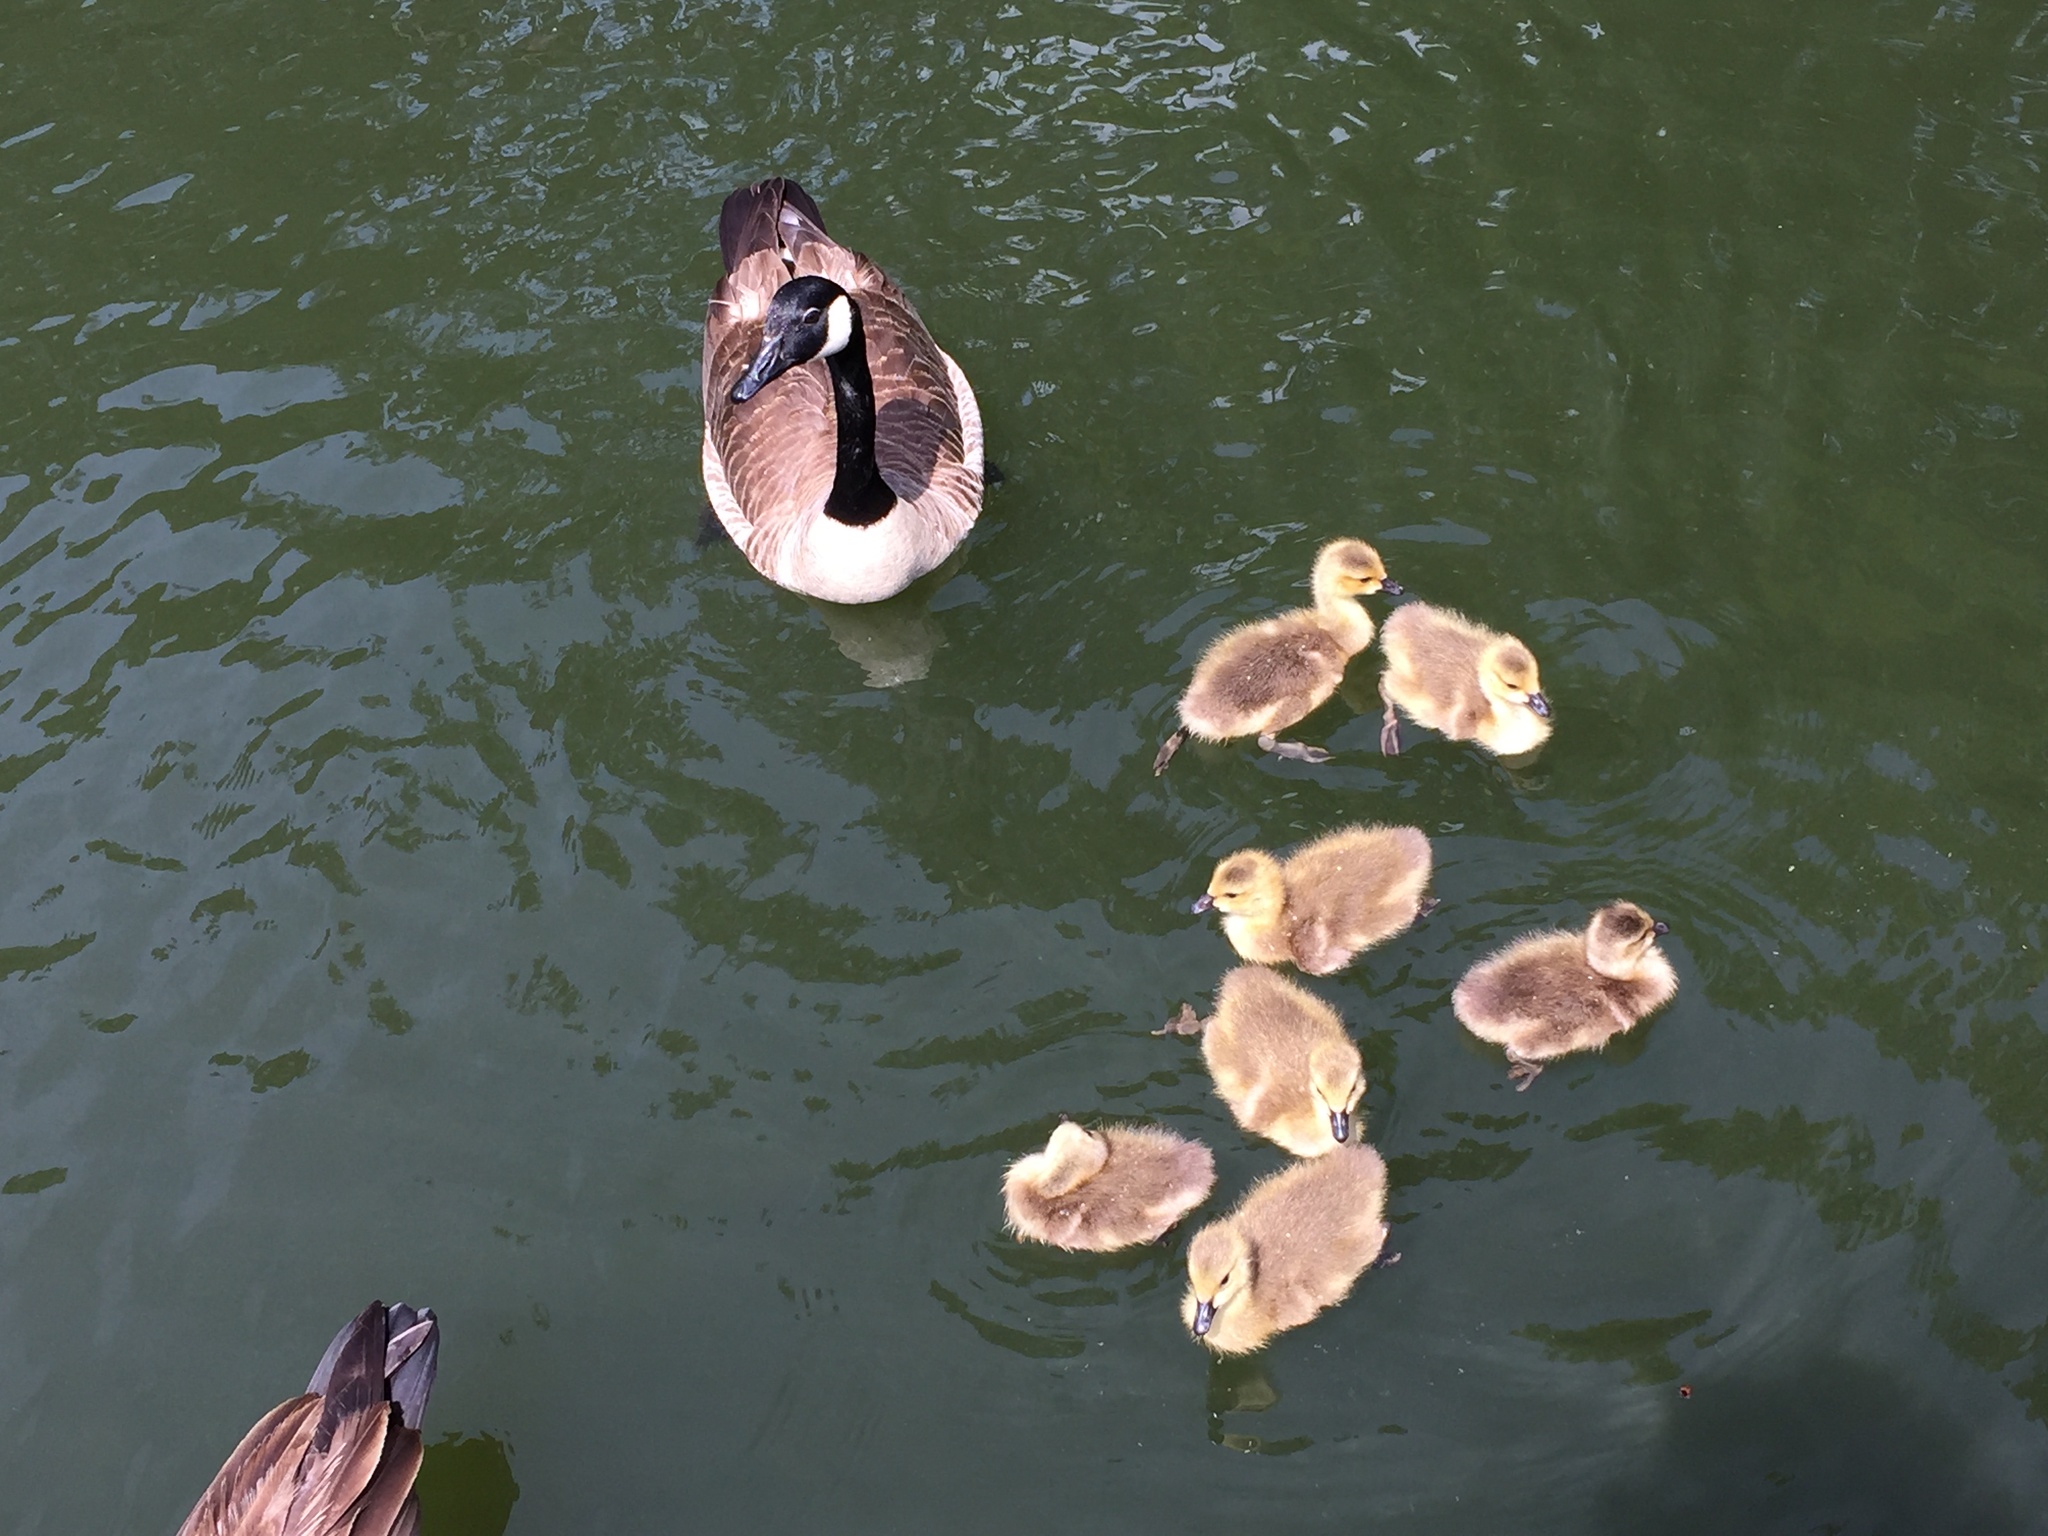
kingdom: Animalia
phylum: Chordata
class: Aves
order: Anseriformes
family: Anatidae
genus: Branta
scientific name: Branta canadensis
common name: Canada goose
